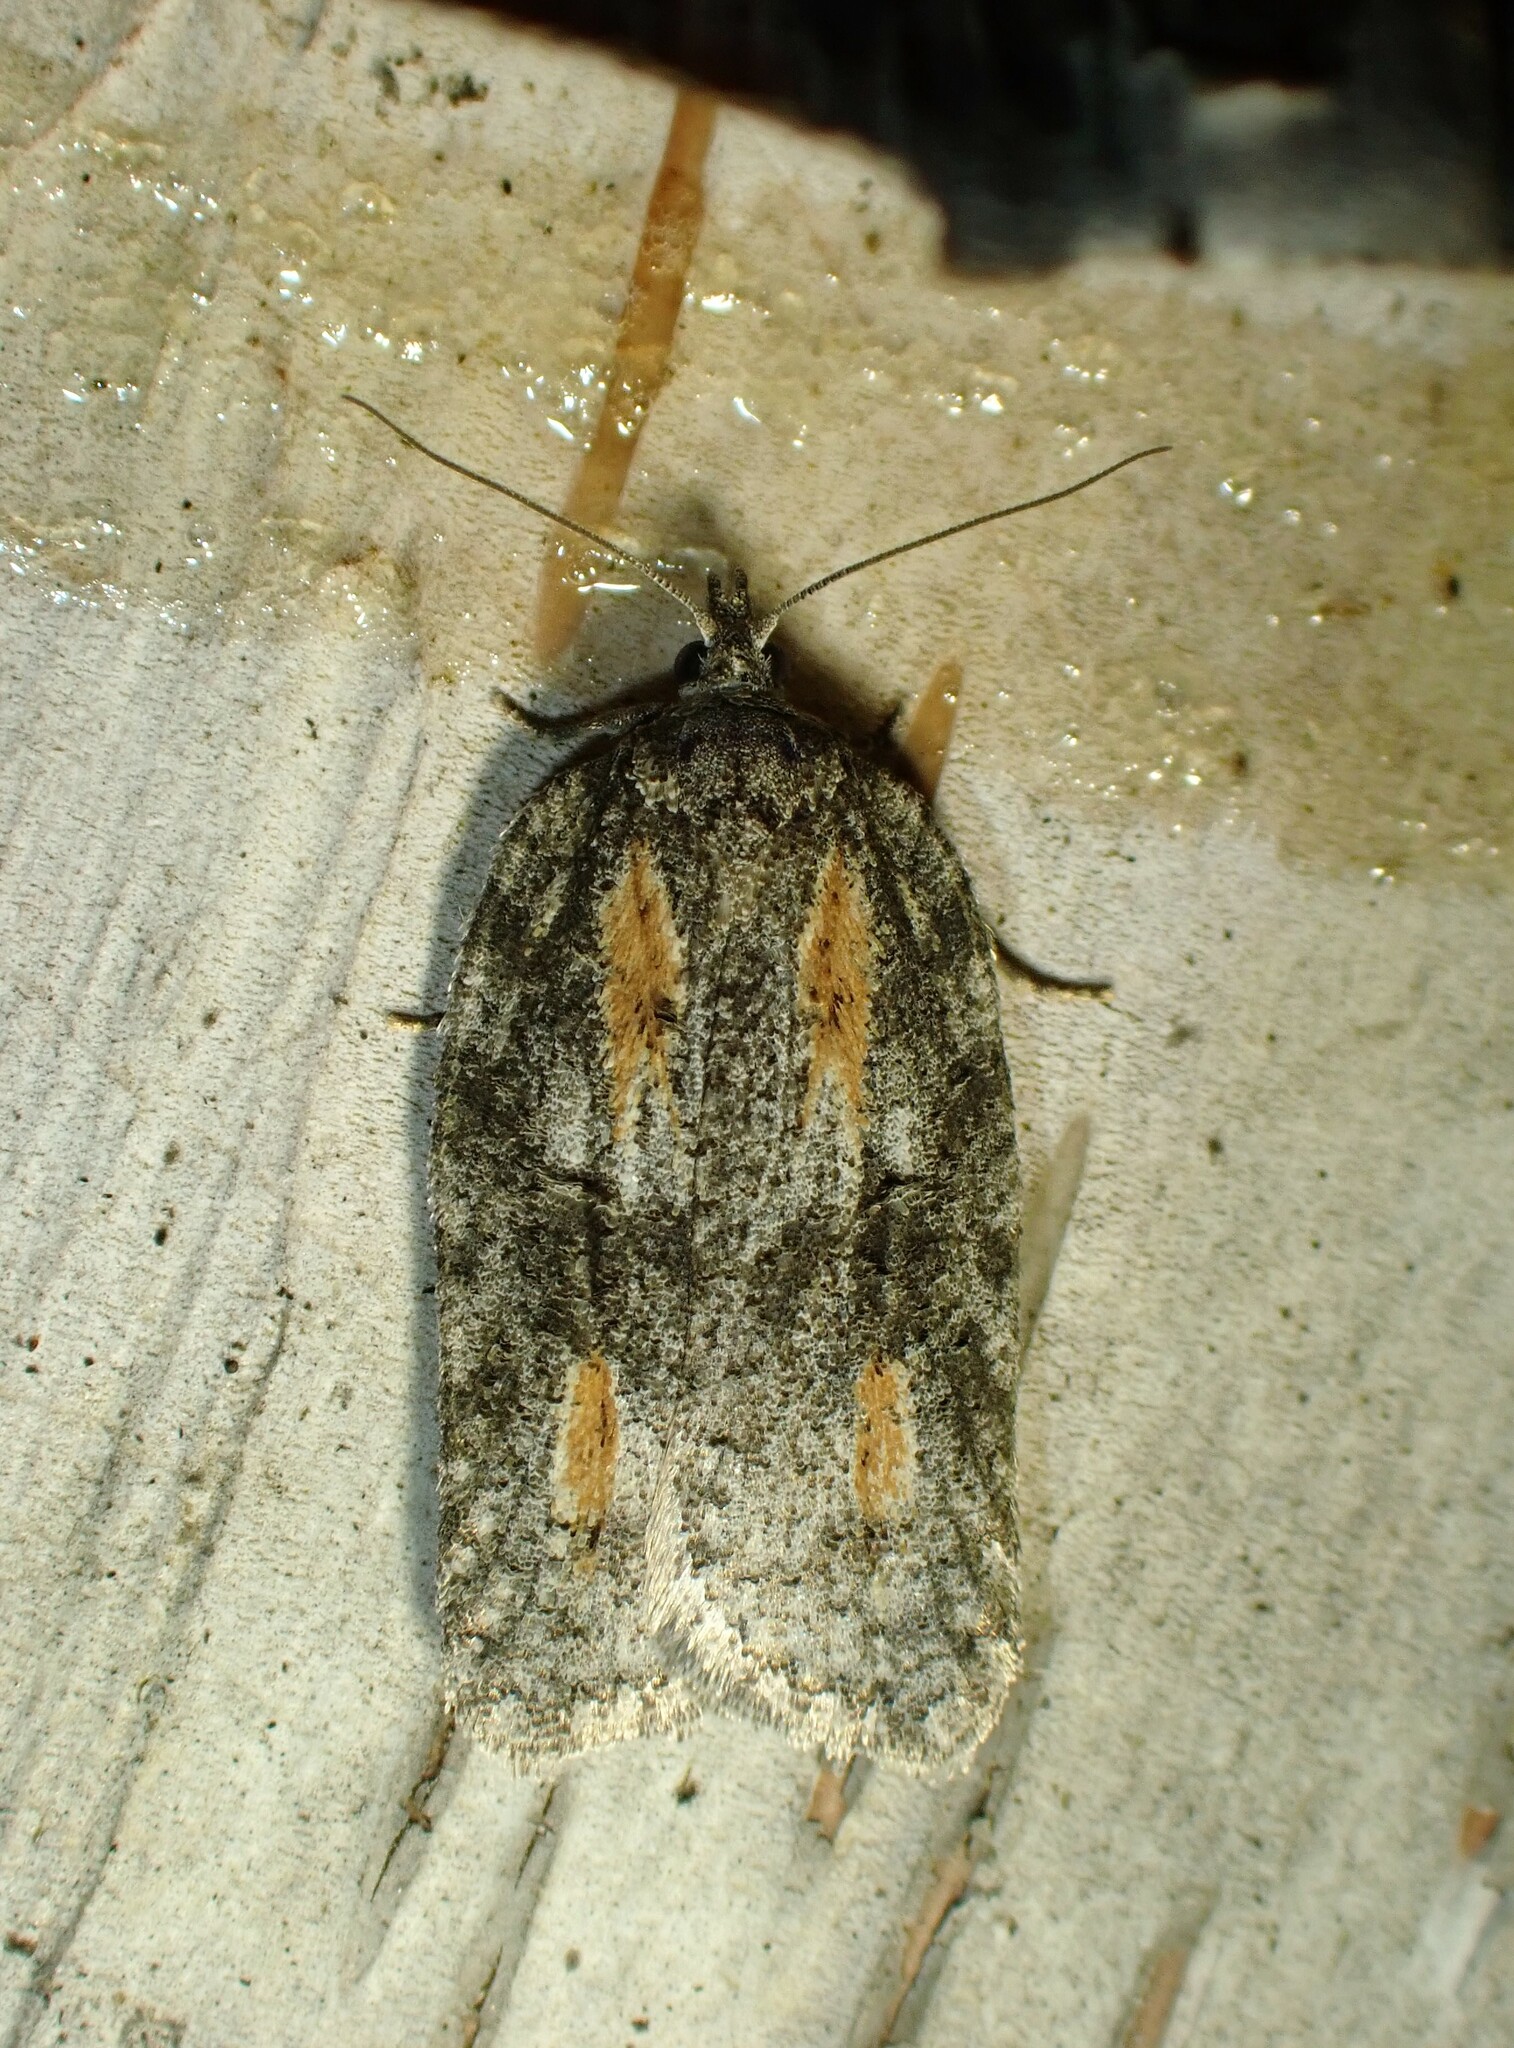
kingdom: Animalia
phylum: Arthropoda
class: Insecta
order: Lepidoptera
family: Tortricidae
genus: Acleris
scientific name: Acleris nigrolinea
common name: Black-lined acleris
